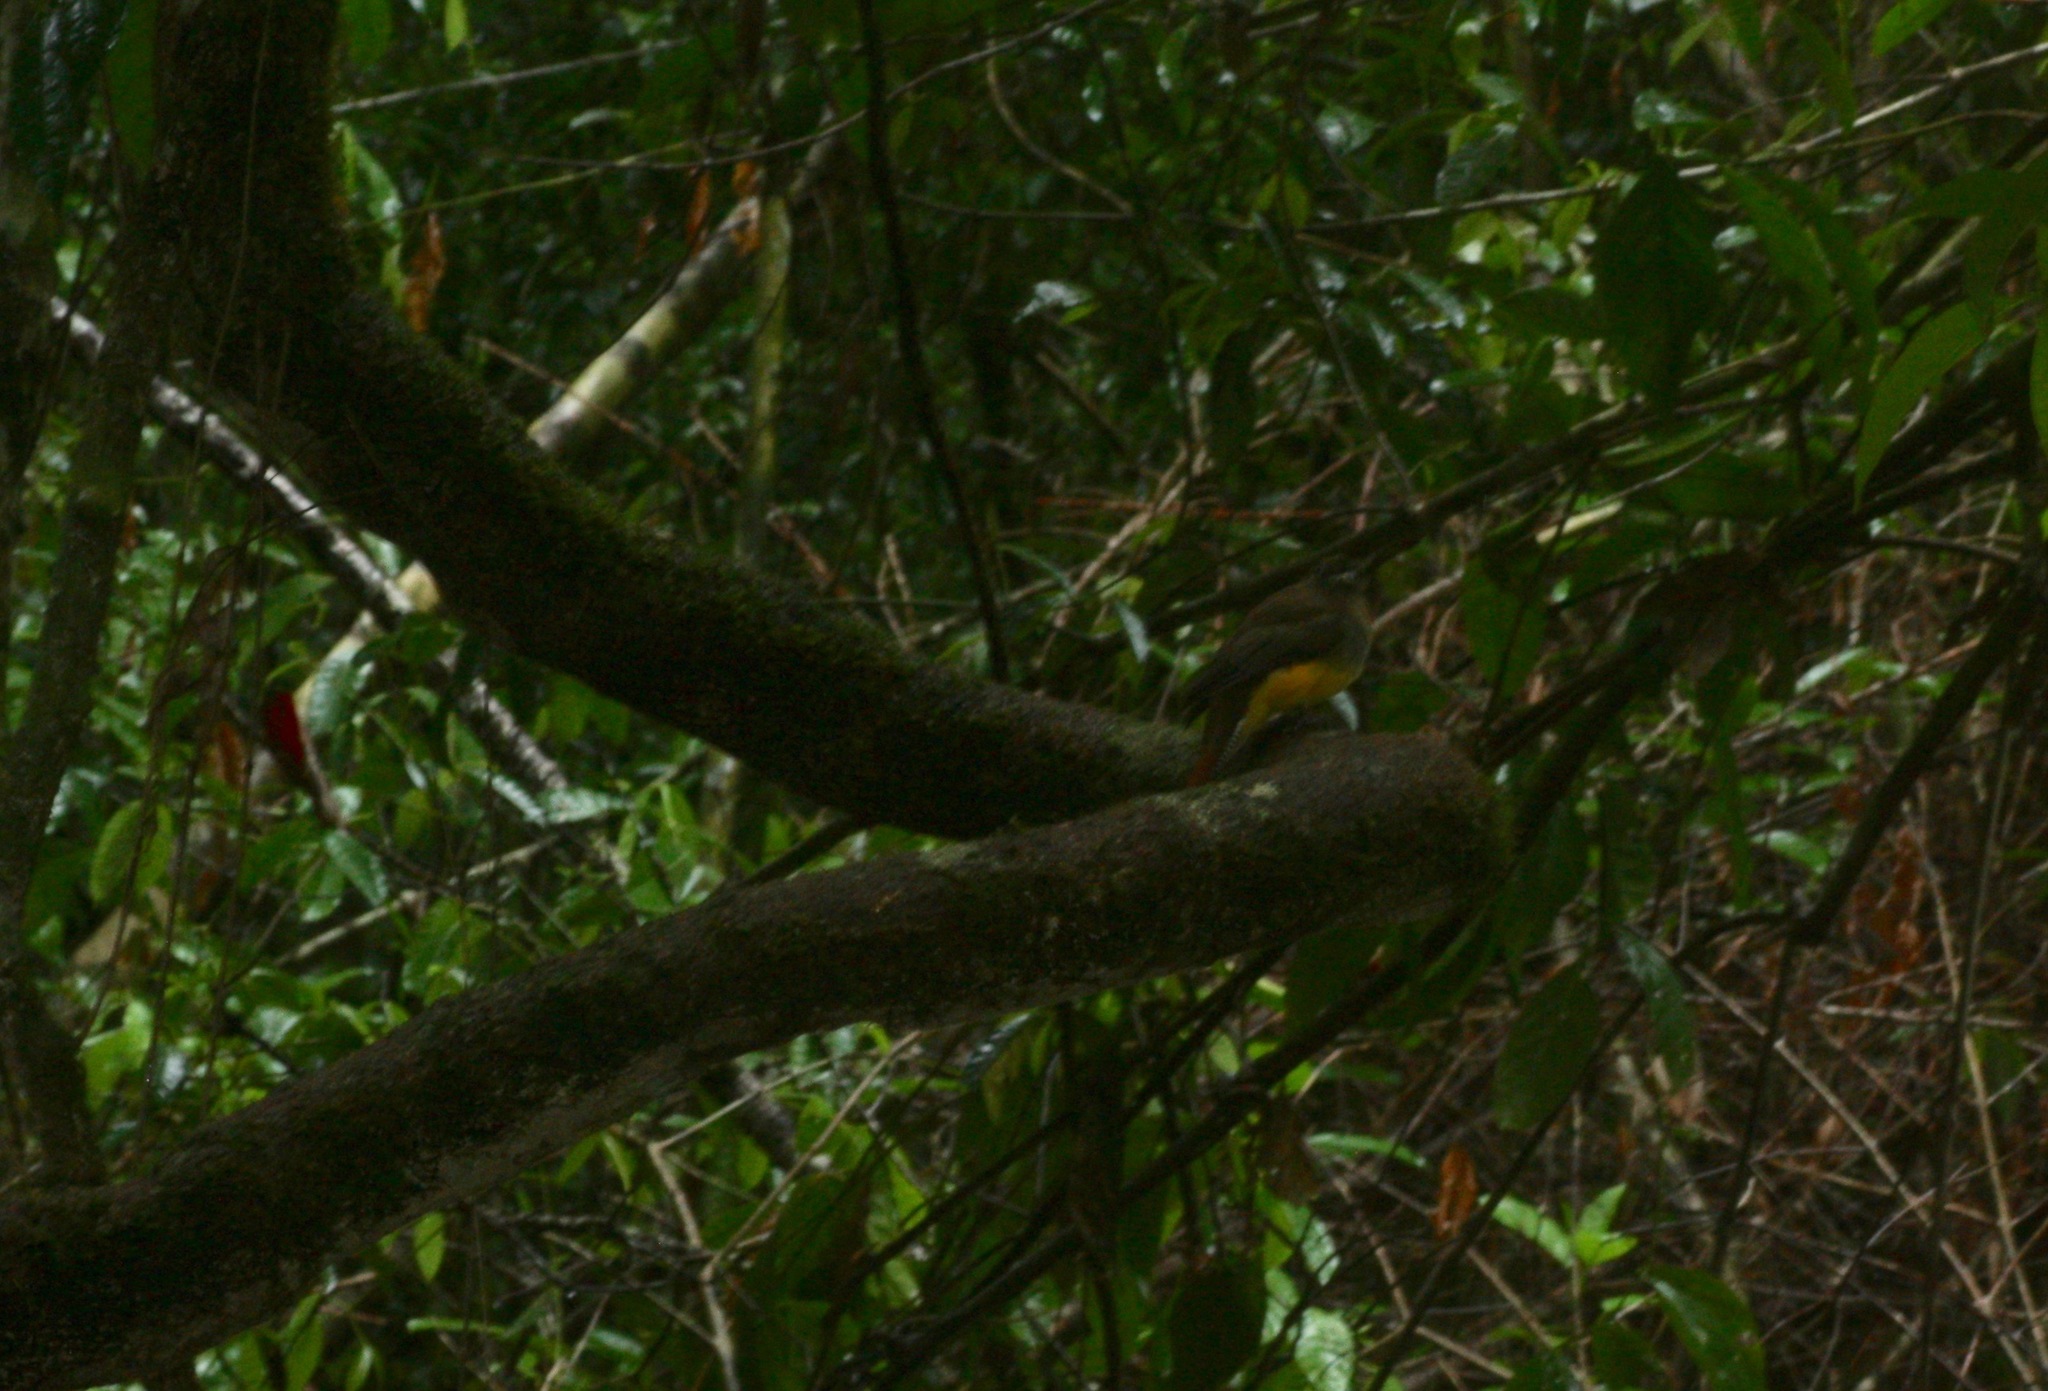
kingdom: Animalia
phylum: Chordata
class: Aves
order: Trogoniformes
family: Trogonidae
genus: Trogon
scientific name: Trogon rufus
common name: Black-throated trogon
